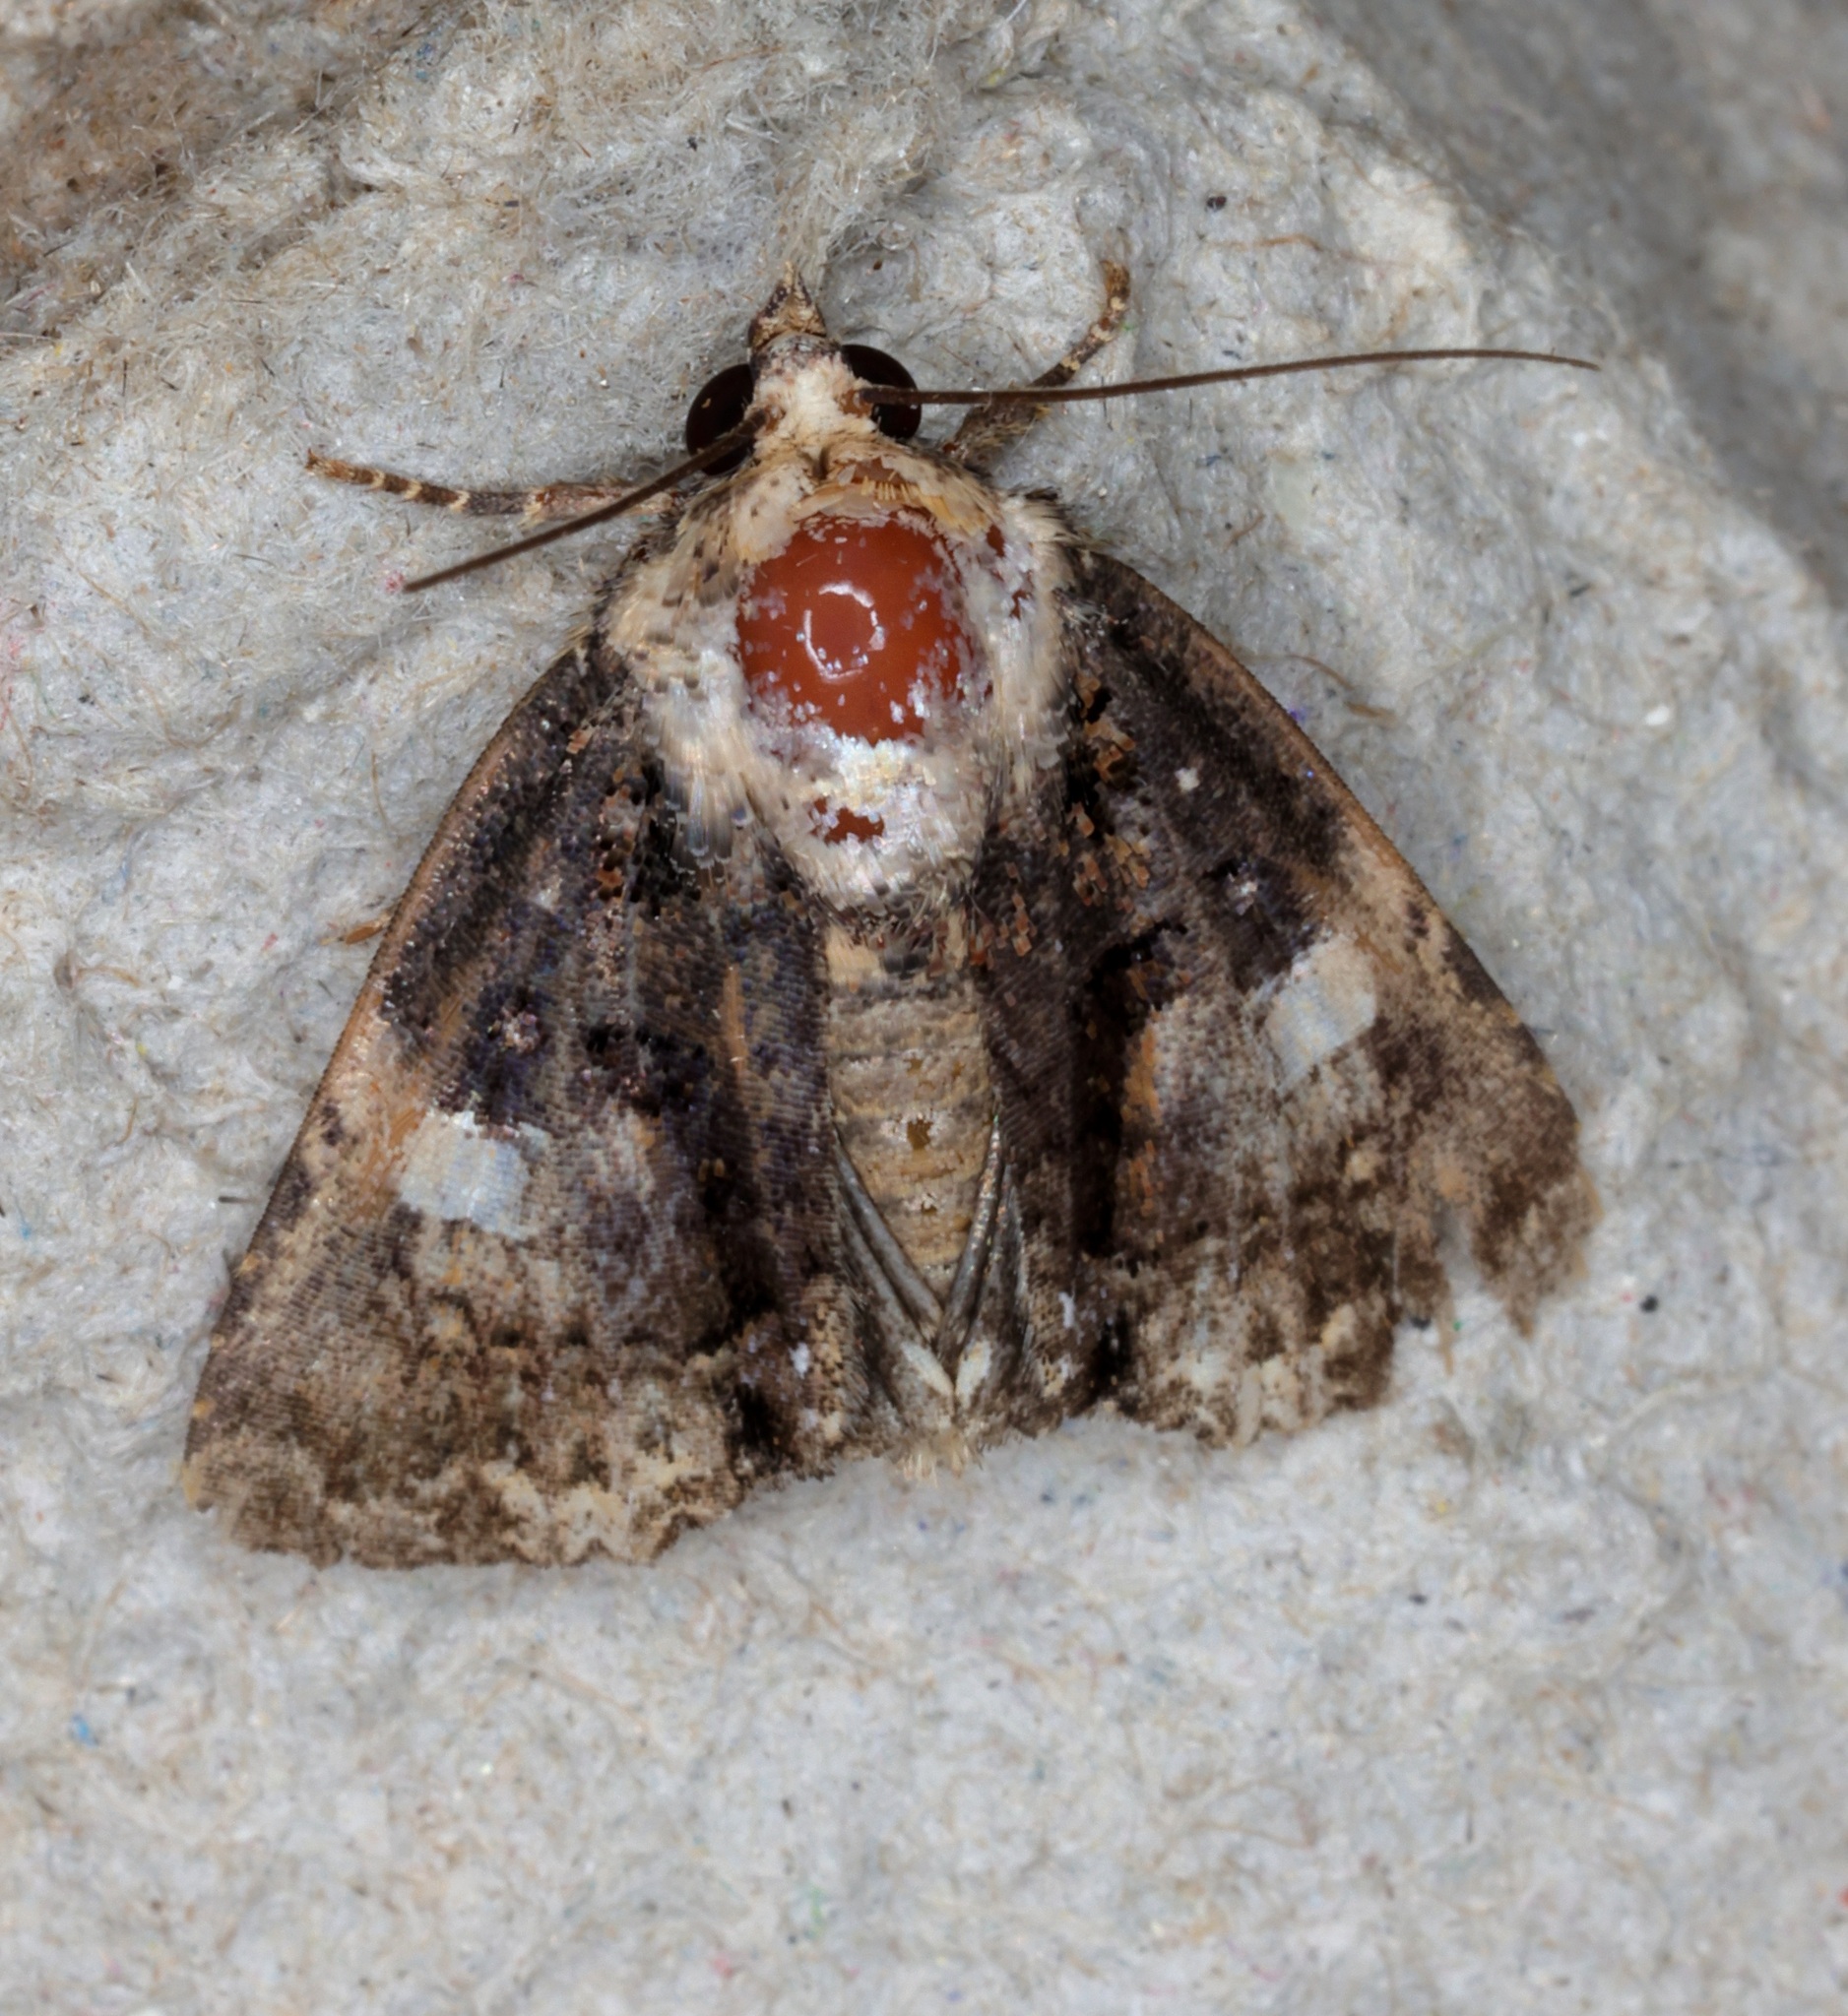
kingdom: Animalia
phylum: Arthropoda
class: Insecta
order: Lepidoptera
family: Erebidae
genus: Ecpatia
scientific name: Ecpatia longinquua
